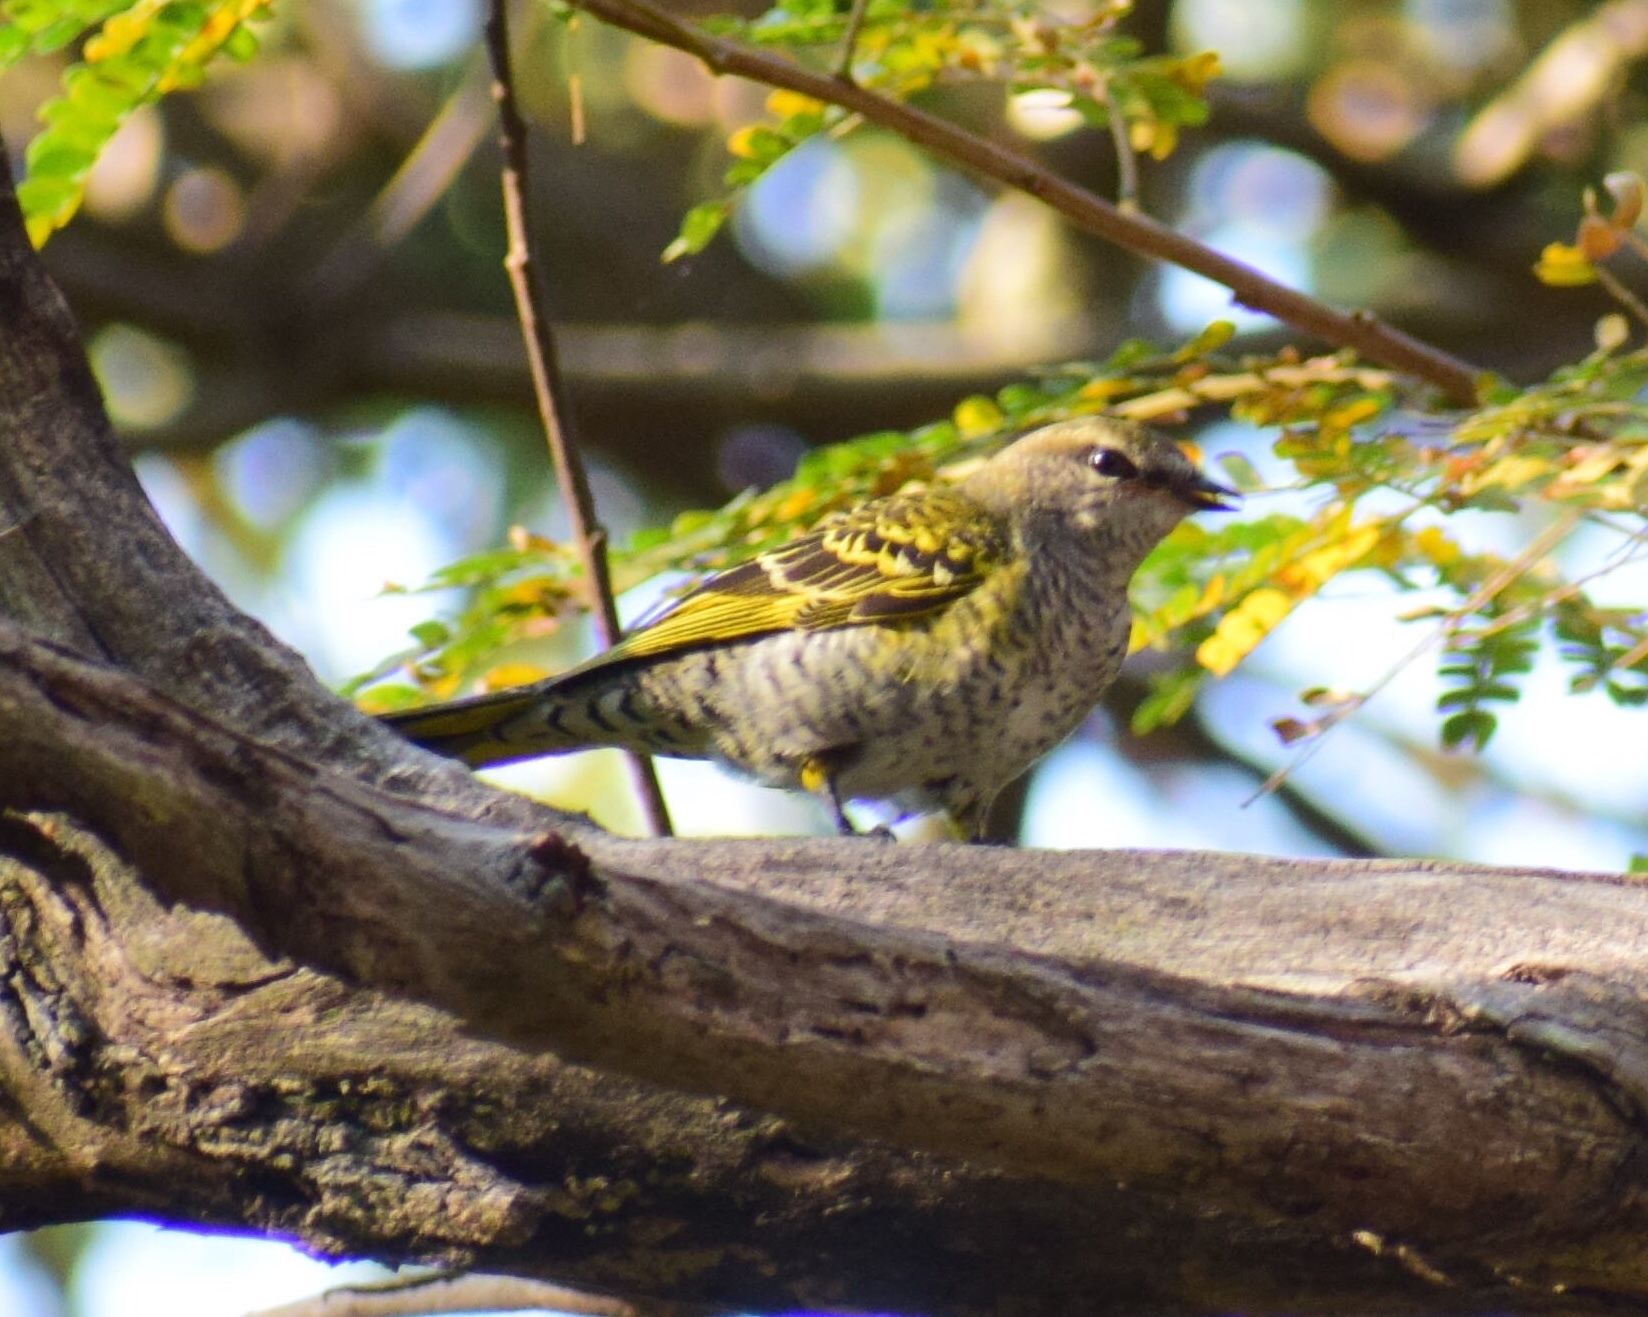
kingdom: Animalia
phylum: Chordata
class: Aves
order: Passeriformes
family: Campephagidae
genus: Campephaga
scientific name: Campephaga flava
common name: Black cuckooshrike
